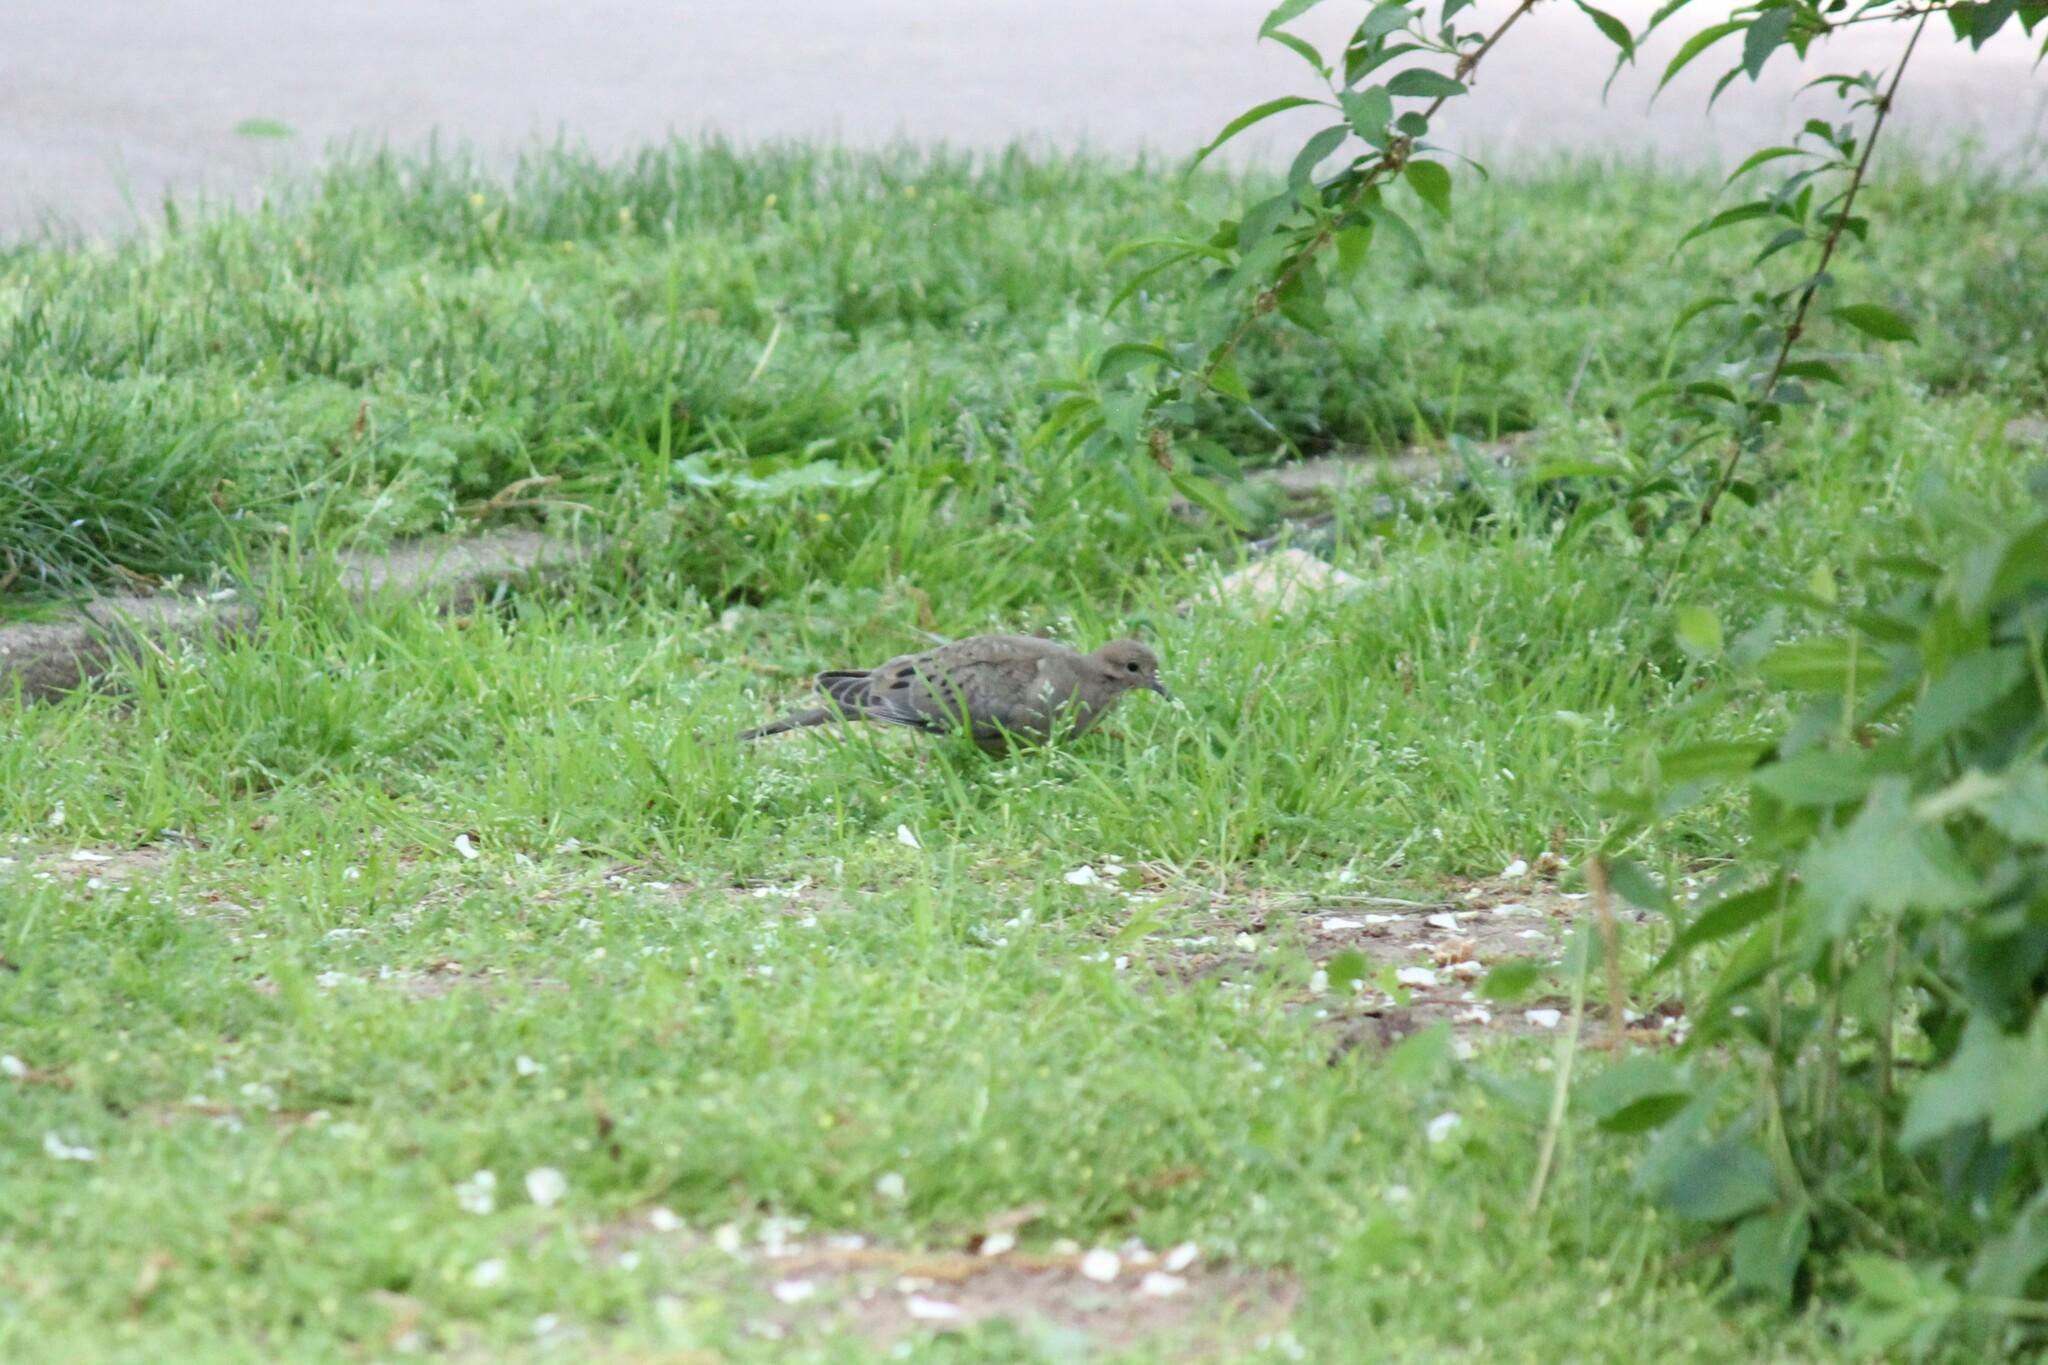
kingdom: Animalia
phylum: Chordata
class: Aves
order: Columbiformes
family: Columbidae
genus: Zenaida
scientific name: Zenaida macroura
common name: Mourning dove
